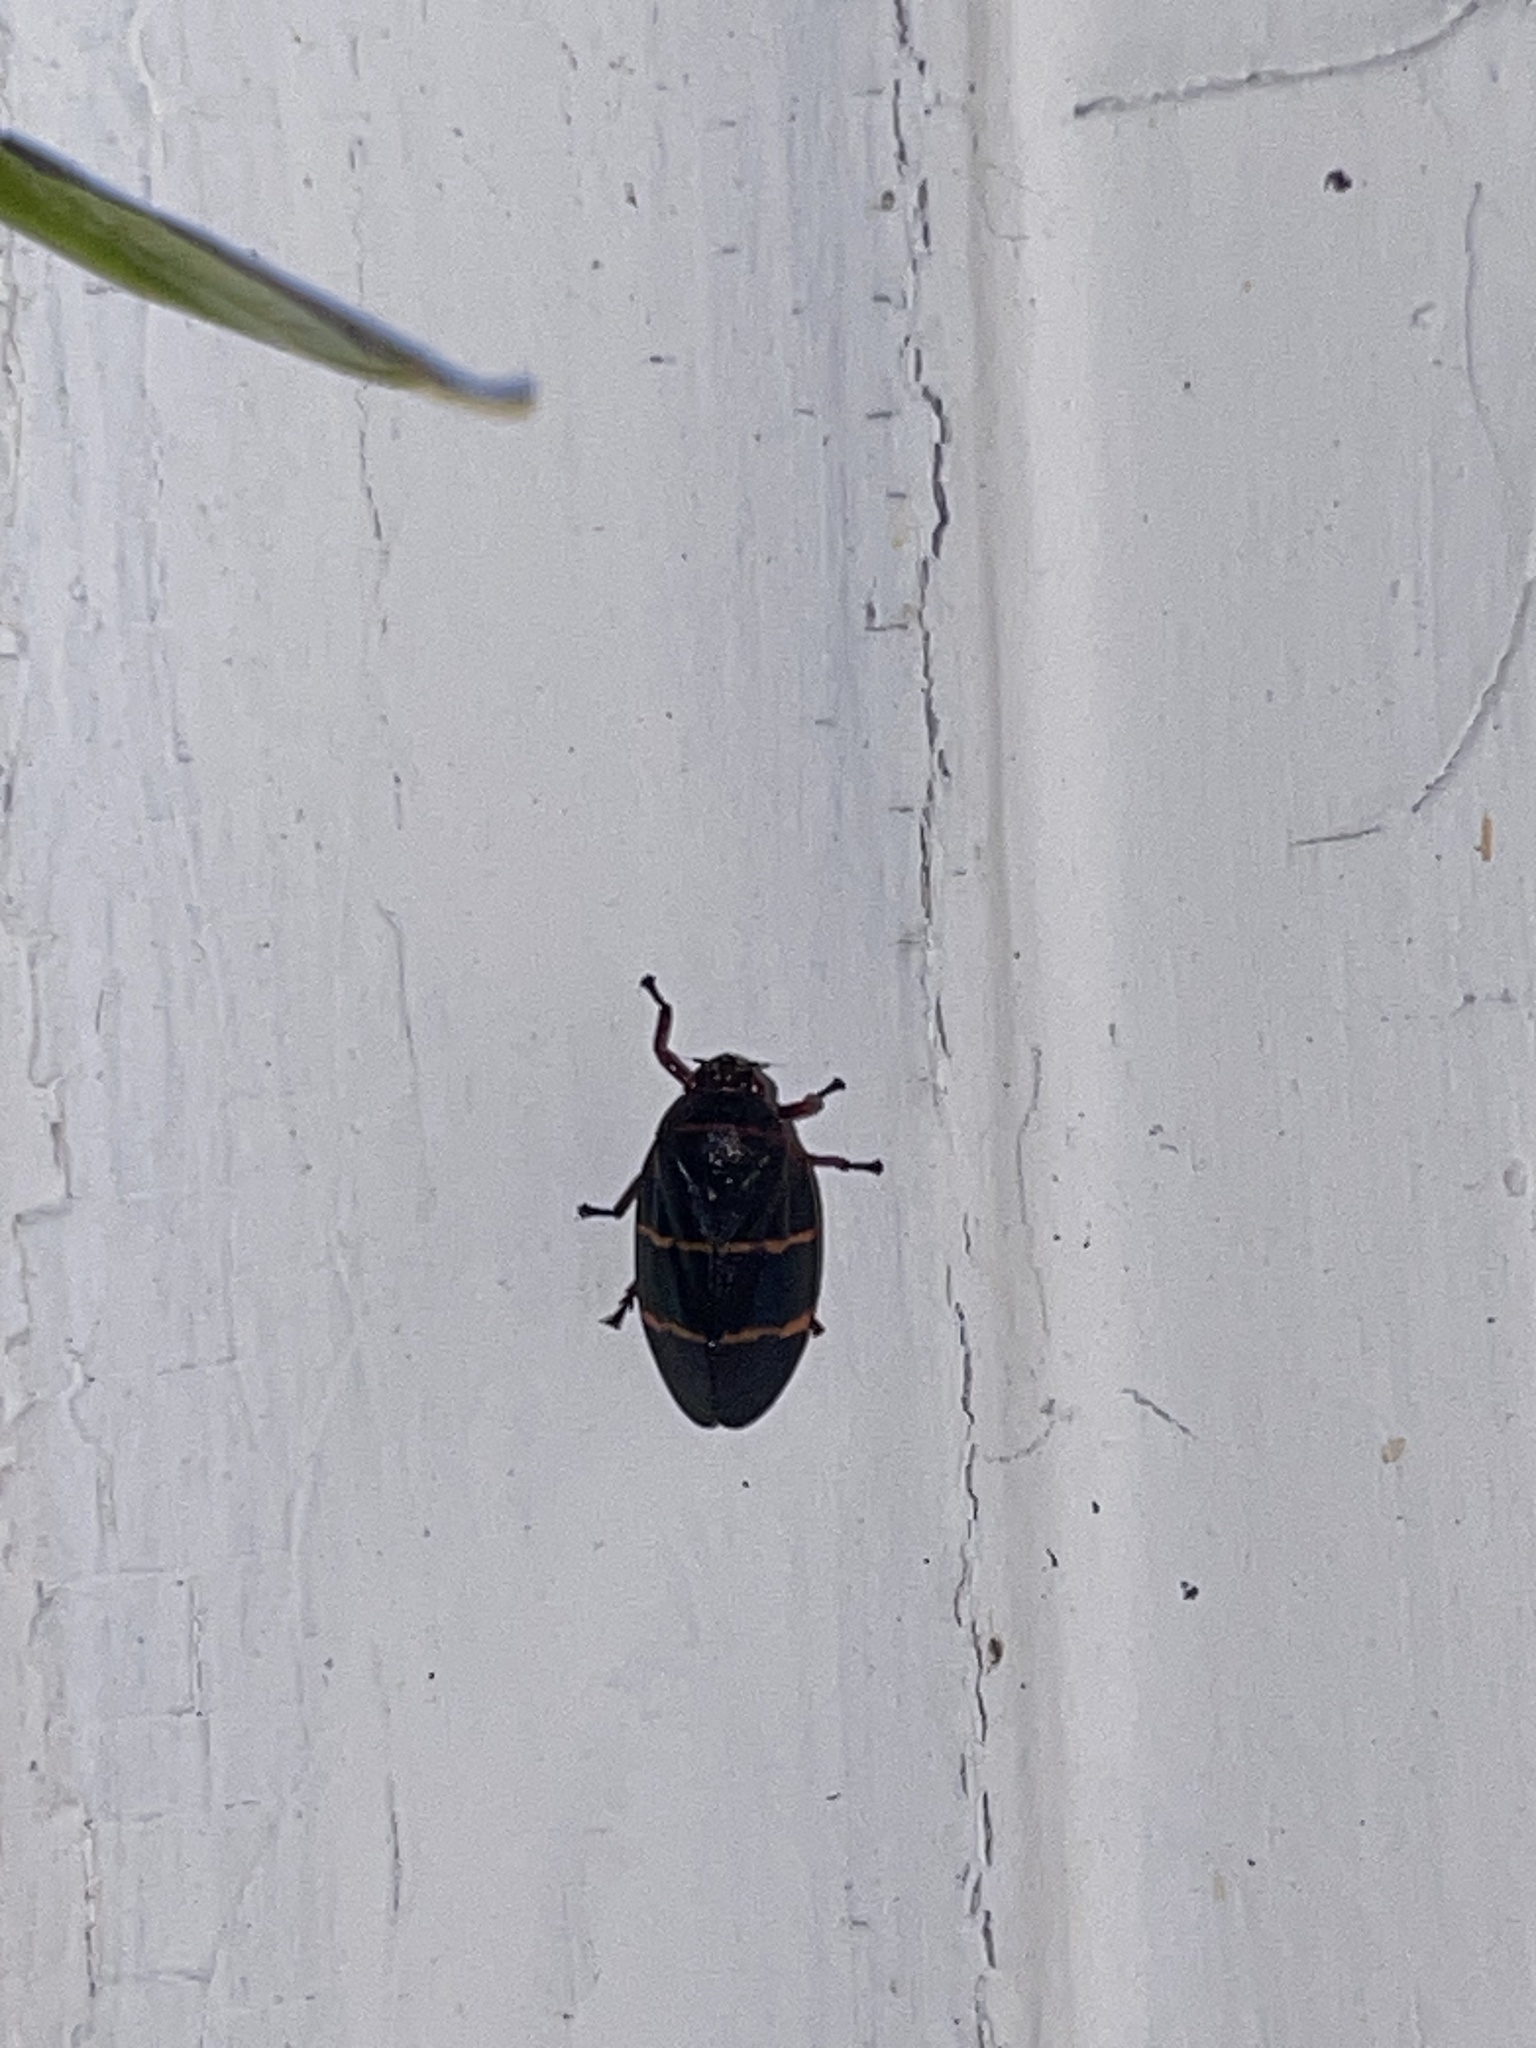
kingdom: Animalia
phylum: Arthropoda
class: Insecta
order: Hemiptera
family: Cercopidae
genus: Prosapia
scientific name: Prosapia bicincta
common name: Twolined spittlebug
